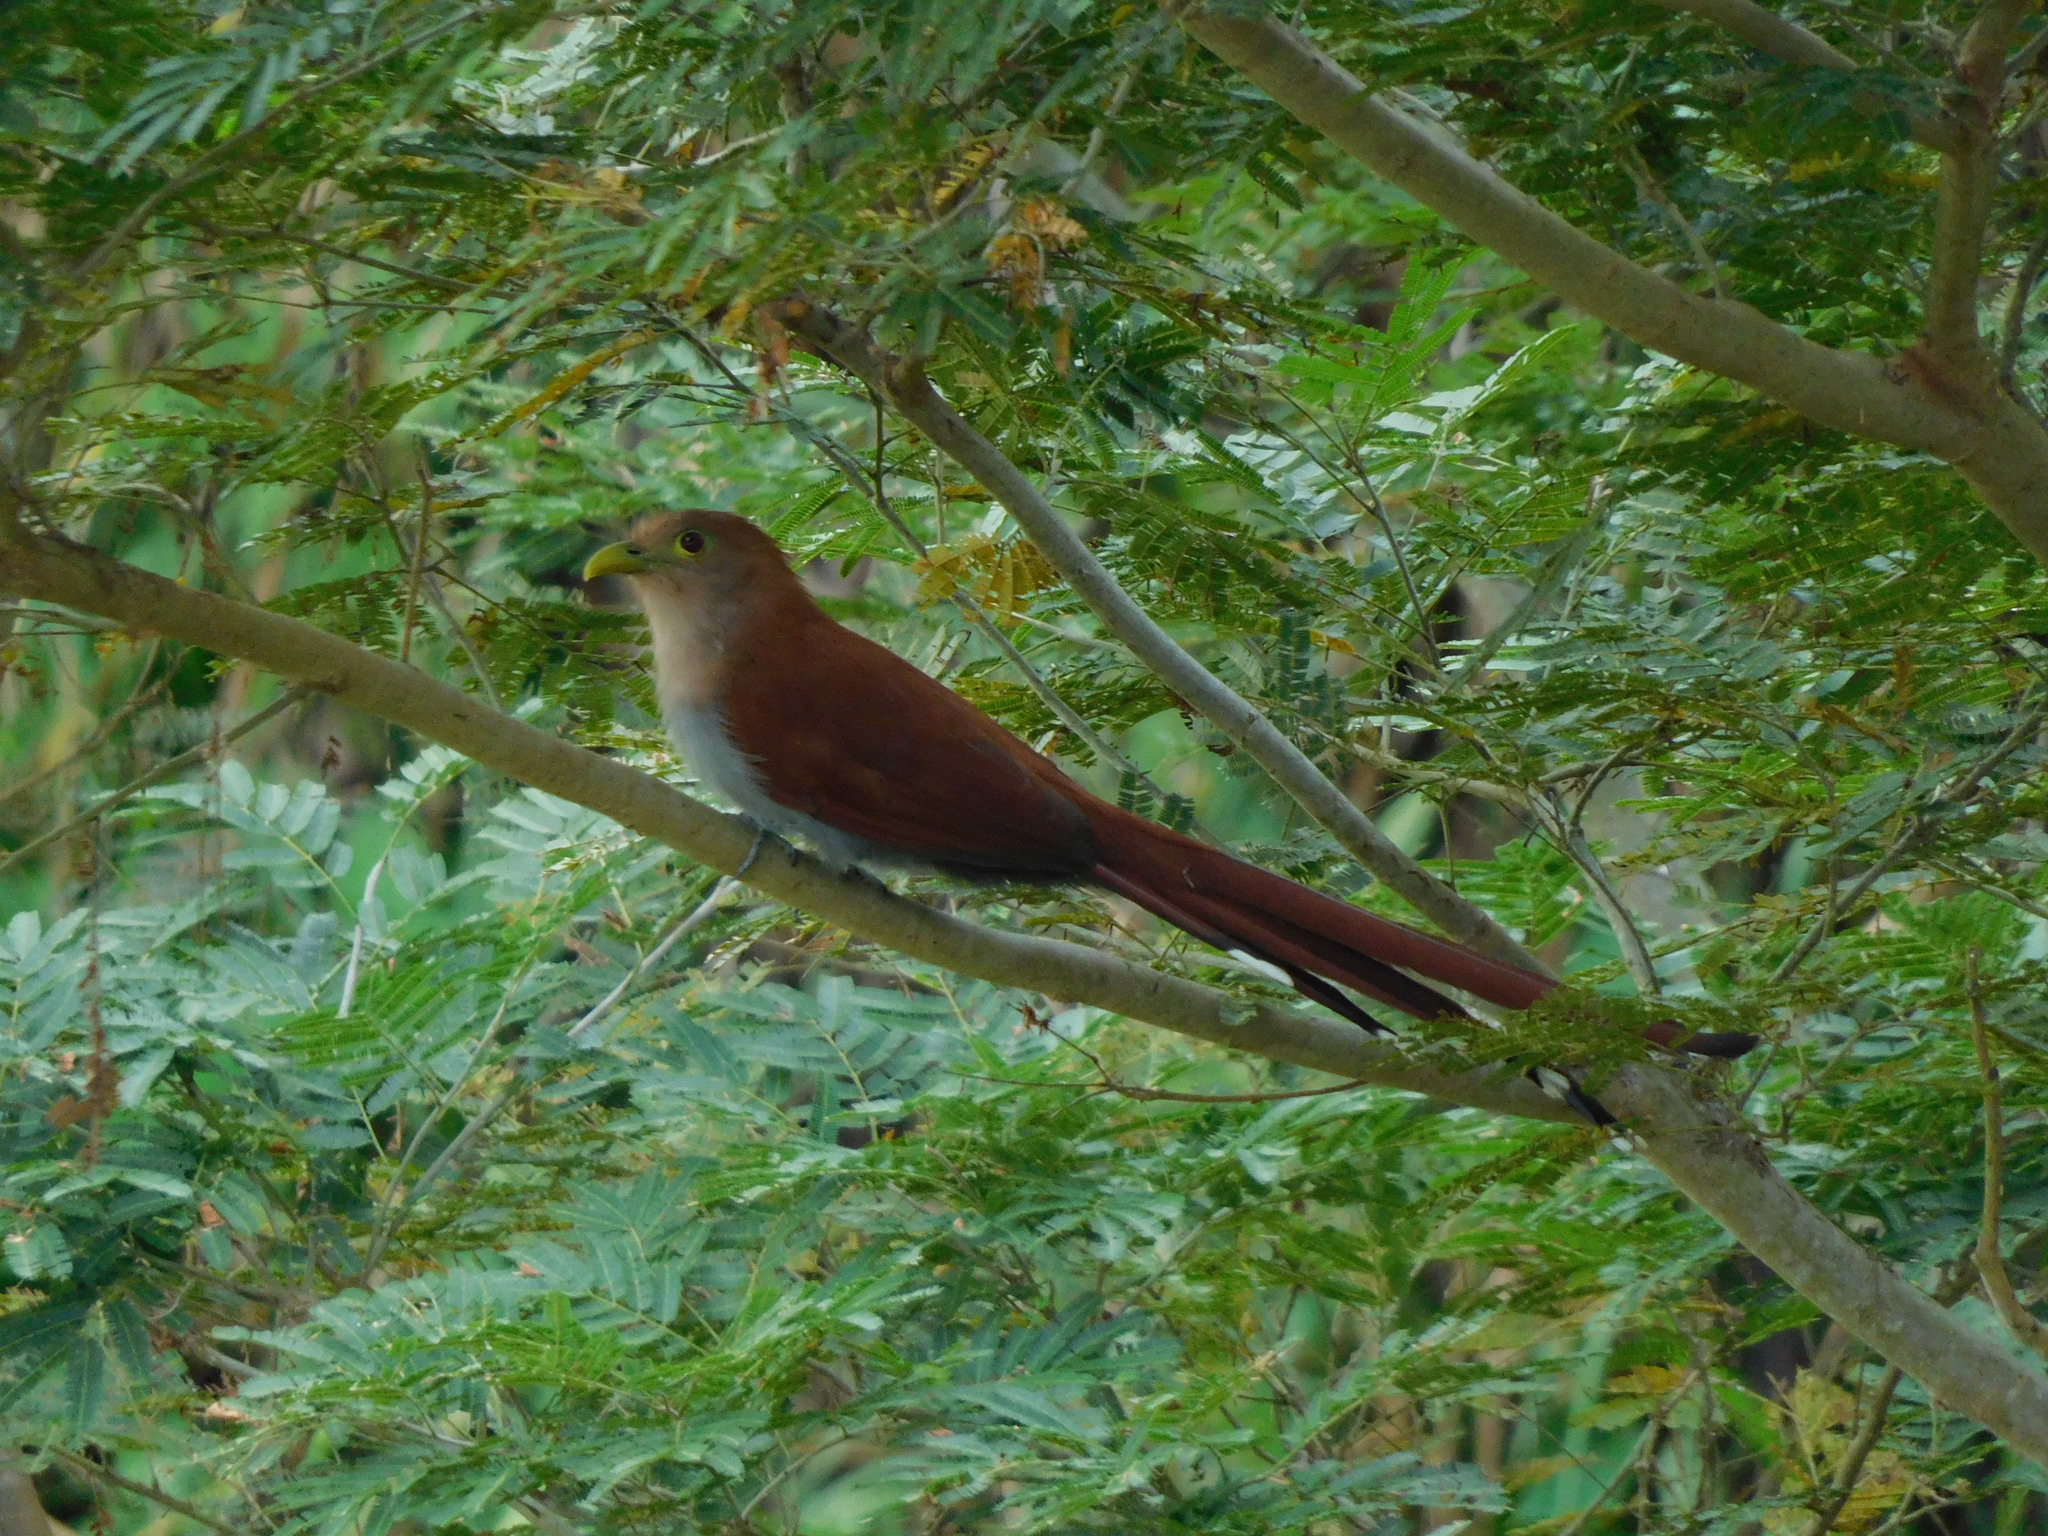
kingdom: Animalia
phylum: Chordata
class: Aves
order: Cuculiformes
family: Cuculidae
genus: Piaya
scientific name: Piaya cayana
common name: Squirrel cuckoo
